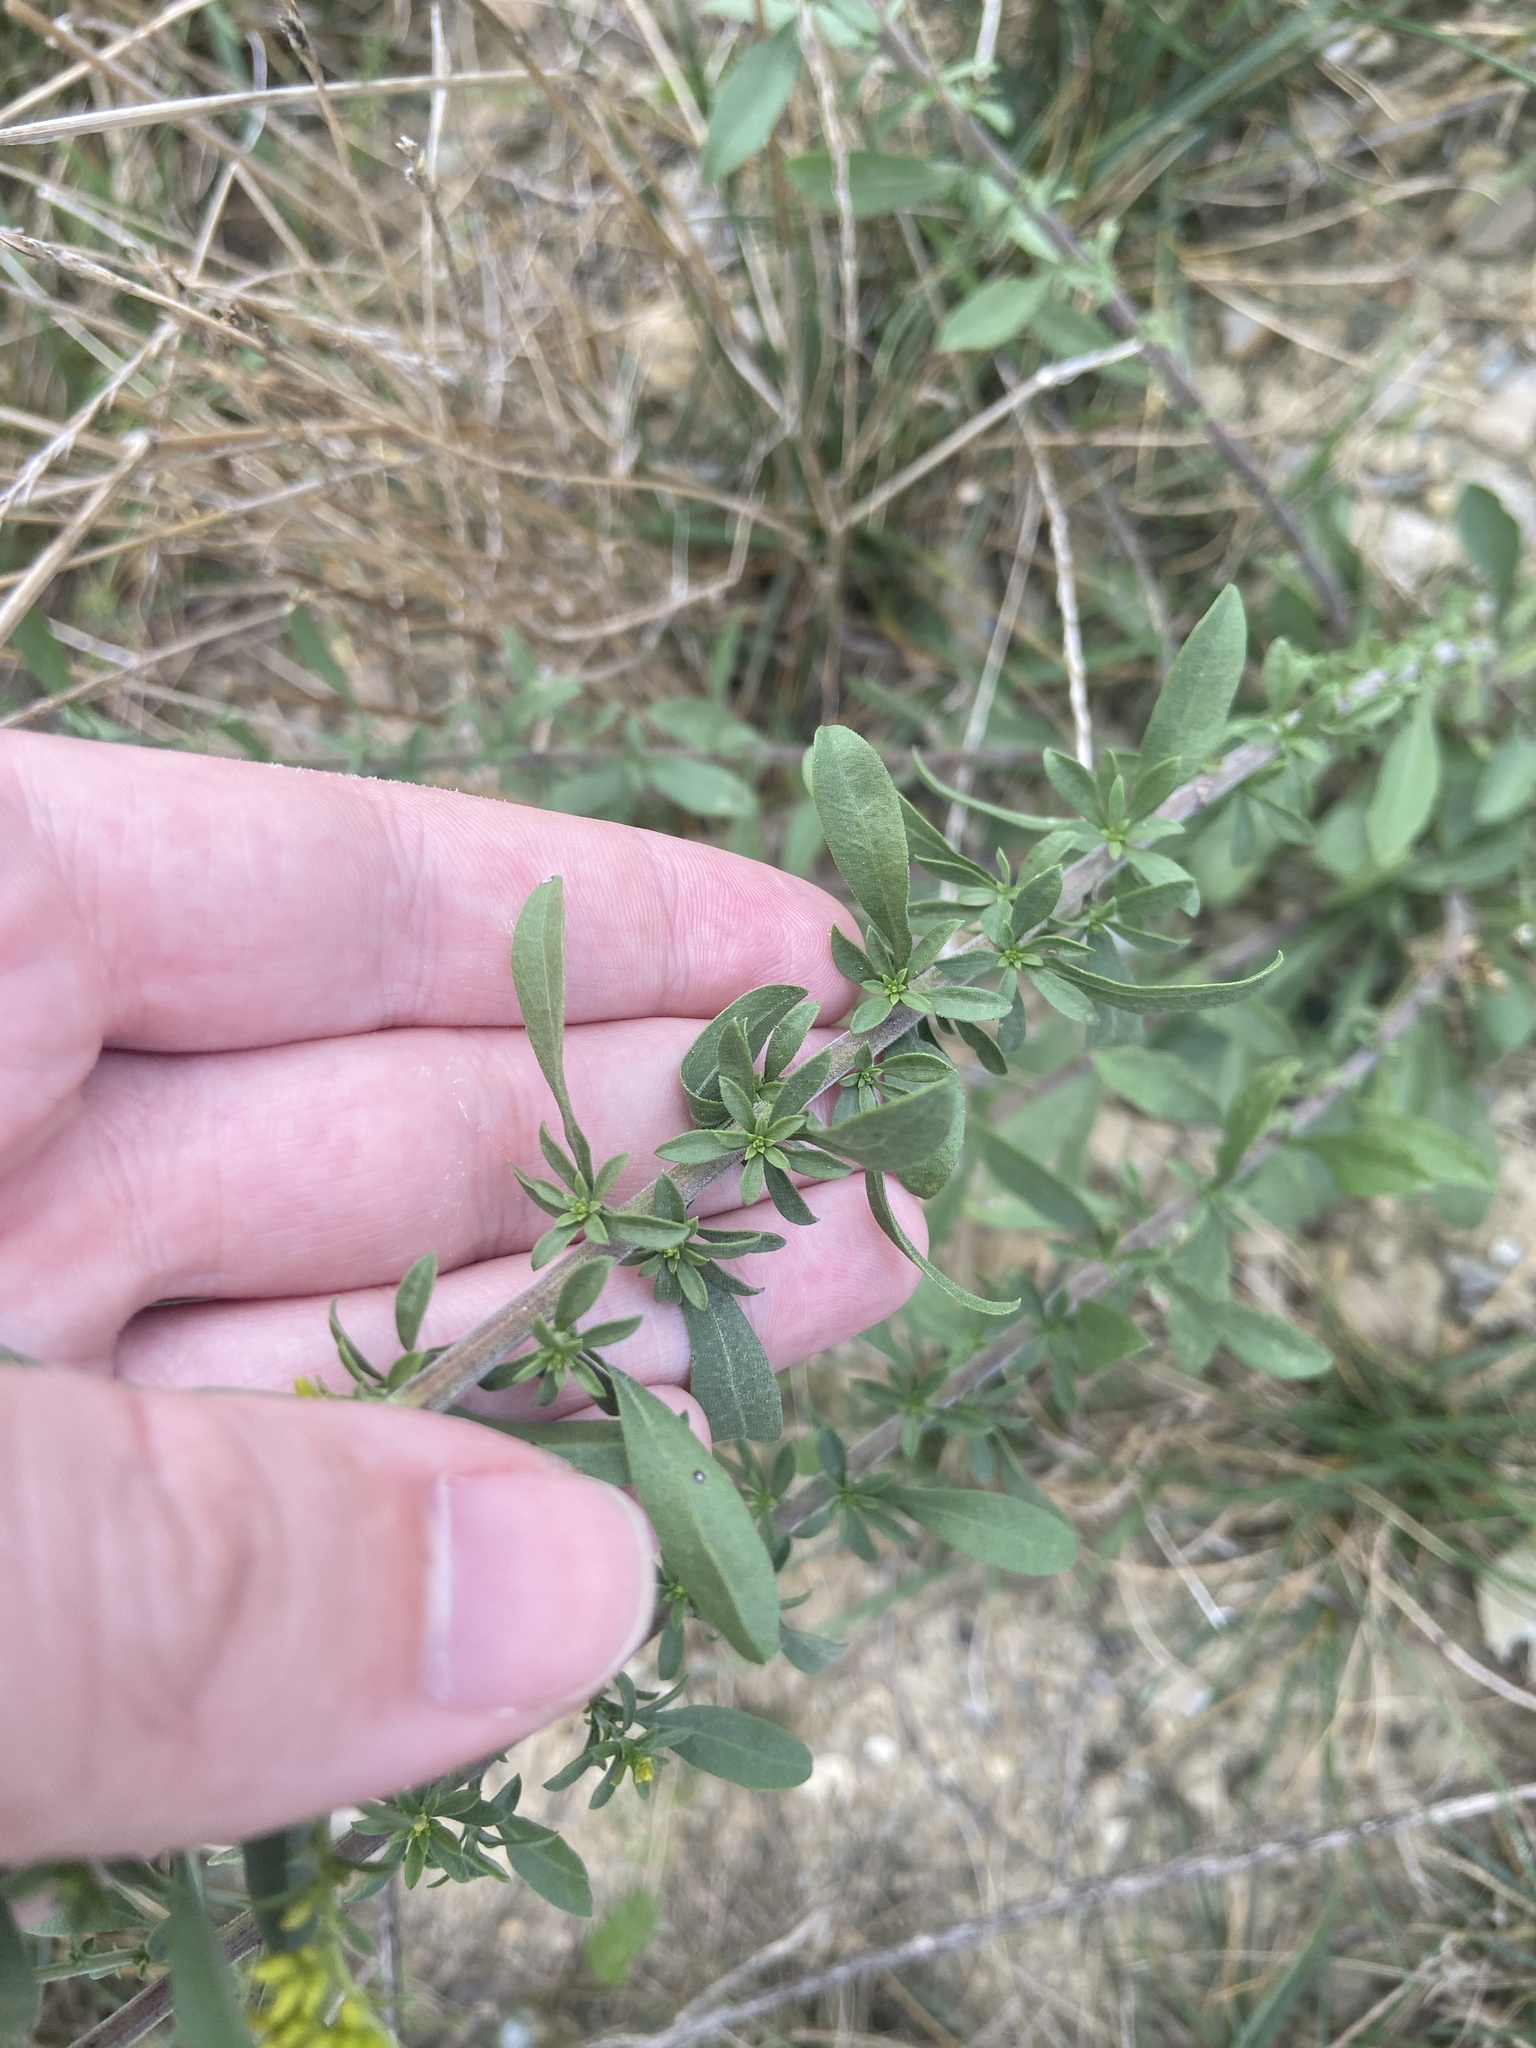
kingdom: Plantae
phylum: Tracheophyta
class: Magnoliopsida
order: Asterales
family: Asteraceae
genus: Solidago
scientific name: Solidago nemoralis
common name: Grey goldenrod
